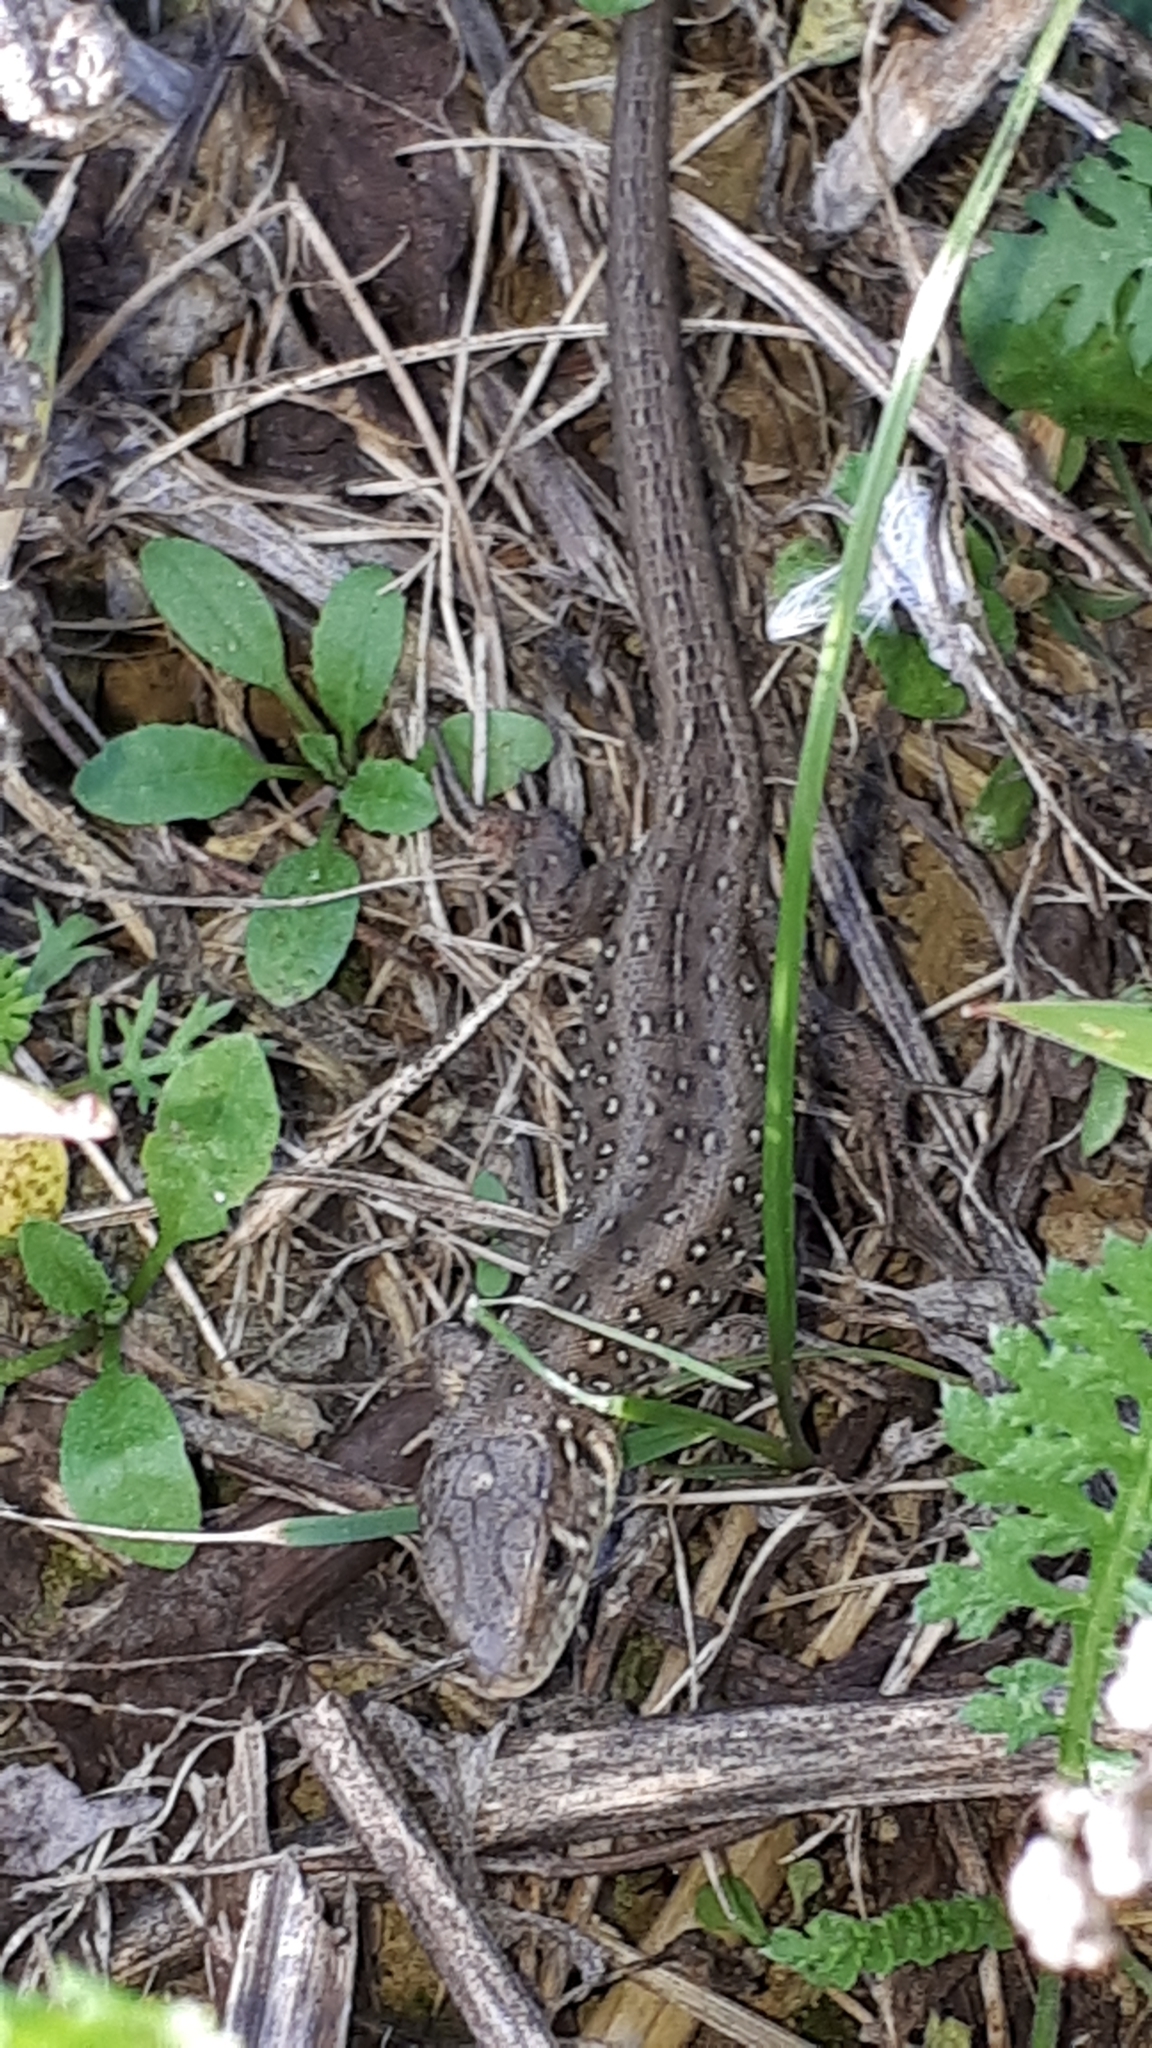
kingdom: Animalia
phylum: Chordata
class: Squamata
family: Lacertidae
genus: Lacerta
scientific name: Lacerta agilis
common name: Sand lizard
